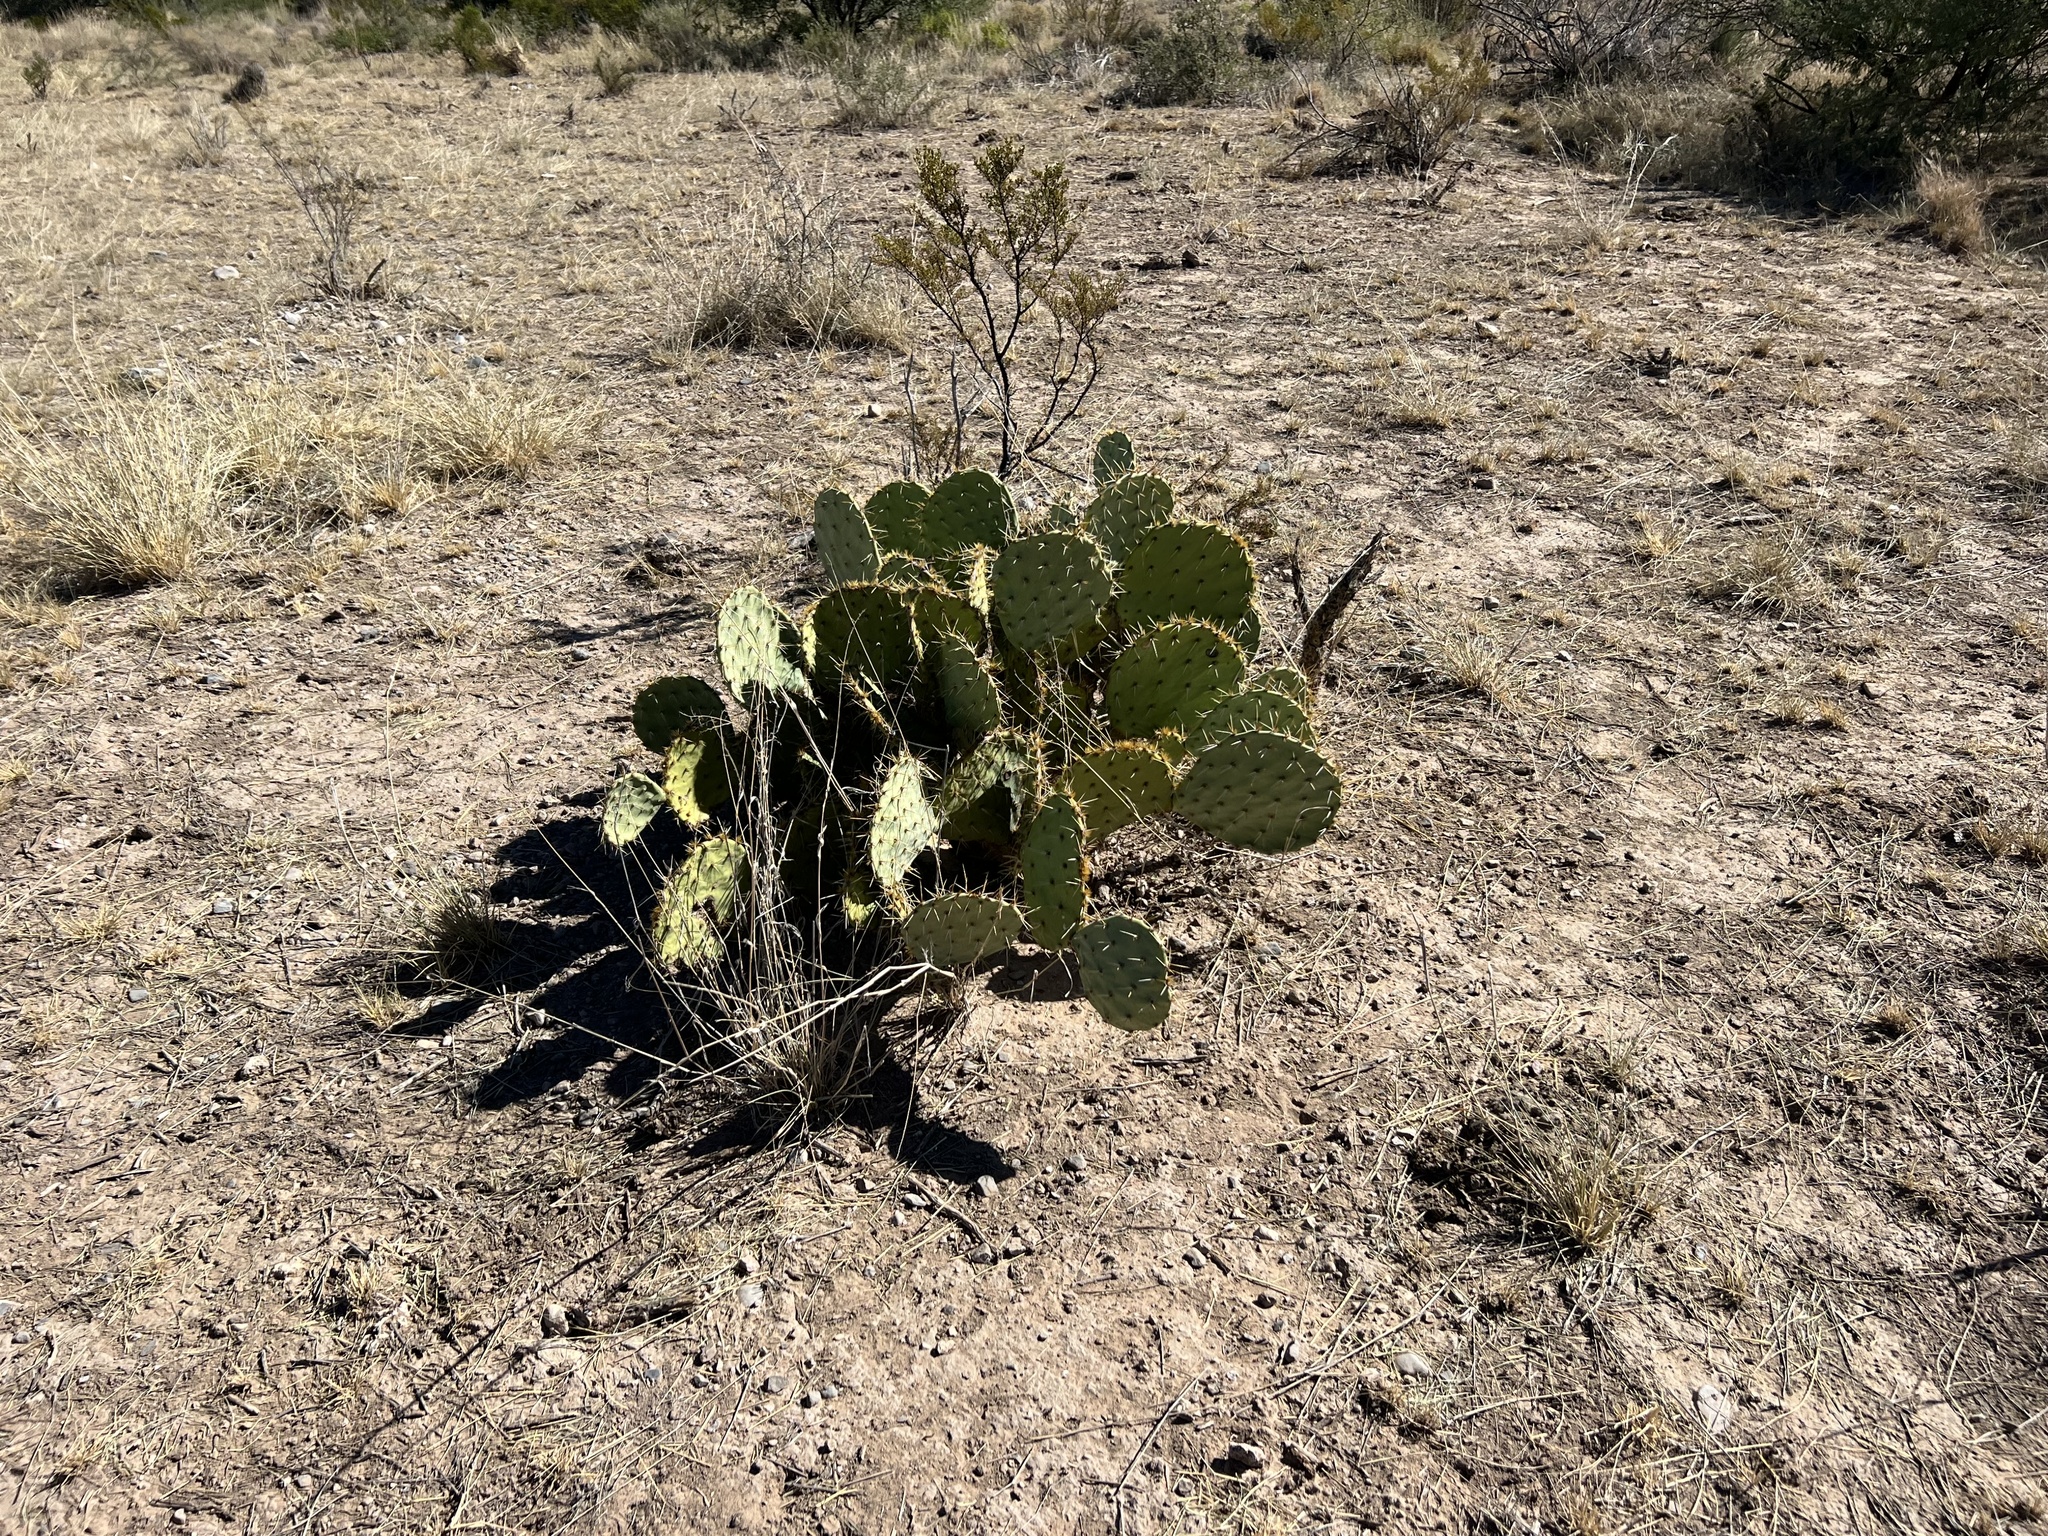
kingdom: Plantae
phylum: Tracheophyta
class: Magnoliopsida
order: Caryophyllales
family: Cactaceae
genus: Opuntia
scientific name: Opuntia engelmannii
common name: Cactus-apple
